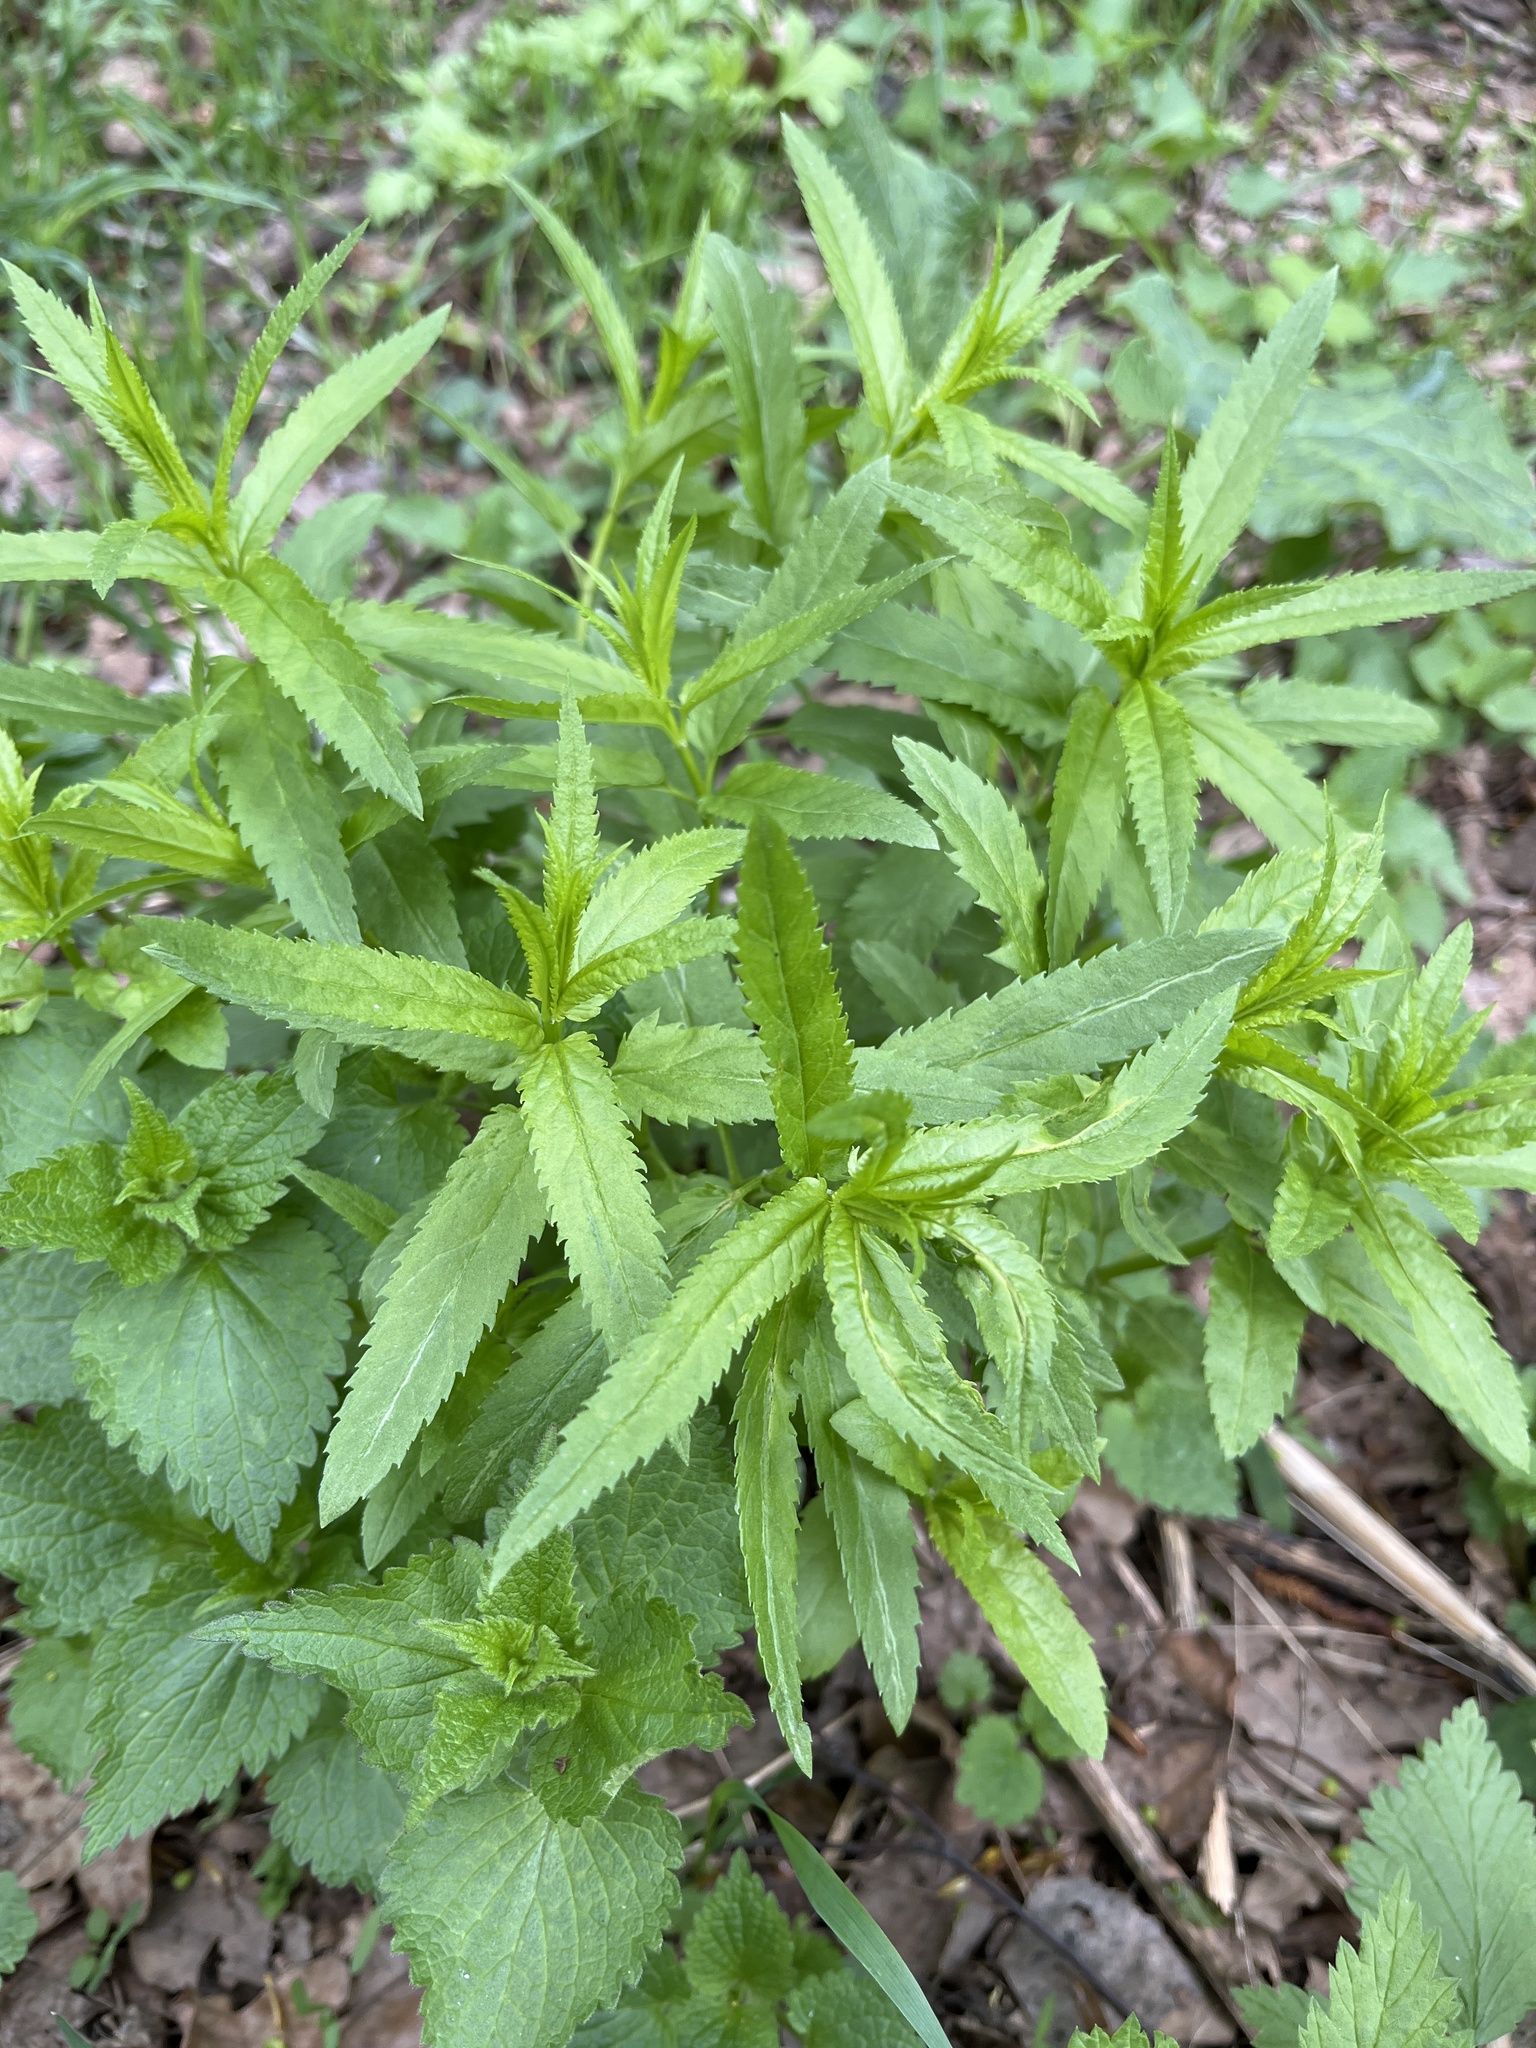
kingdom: Plantae
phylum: Tracheophyta
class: Magnoliopsida
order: Lamiales
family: Plantaginaceae
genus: Veronica
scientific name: Veronica longifolia
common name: Garden speedwell
